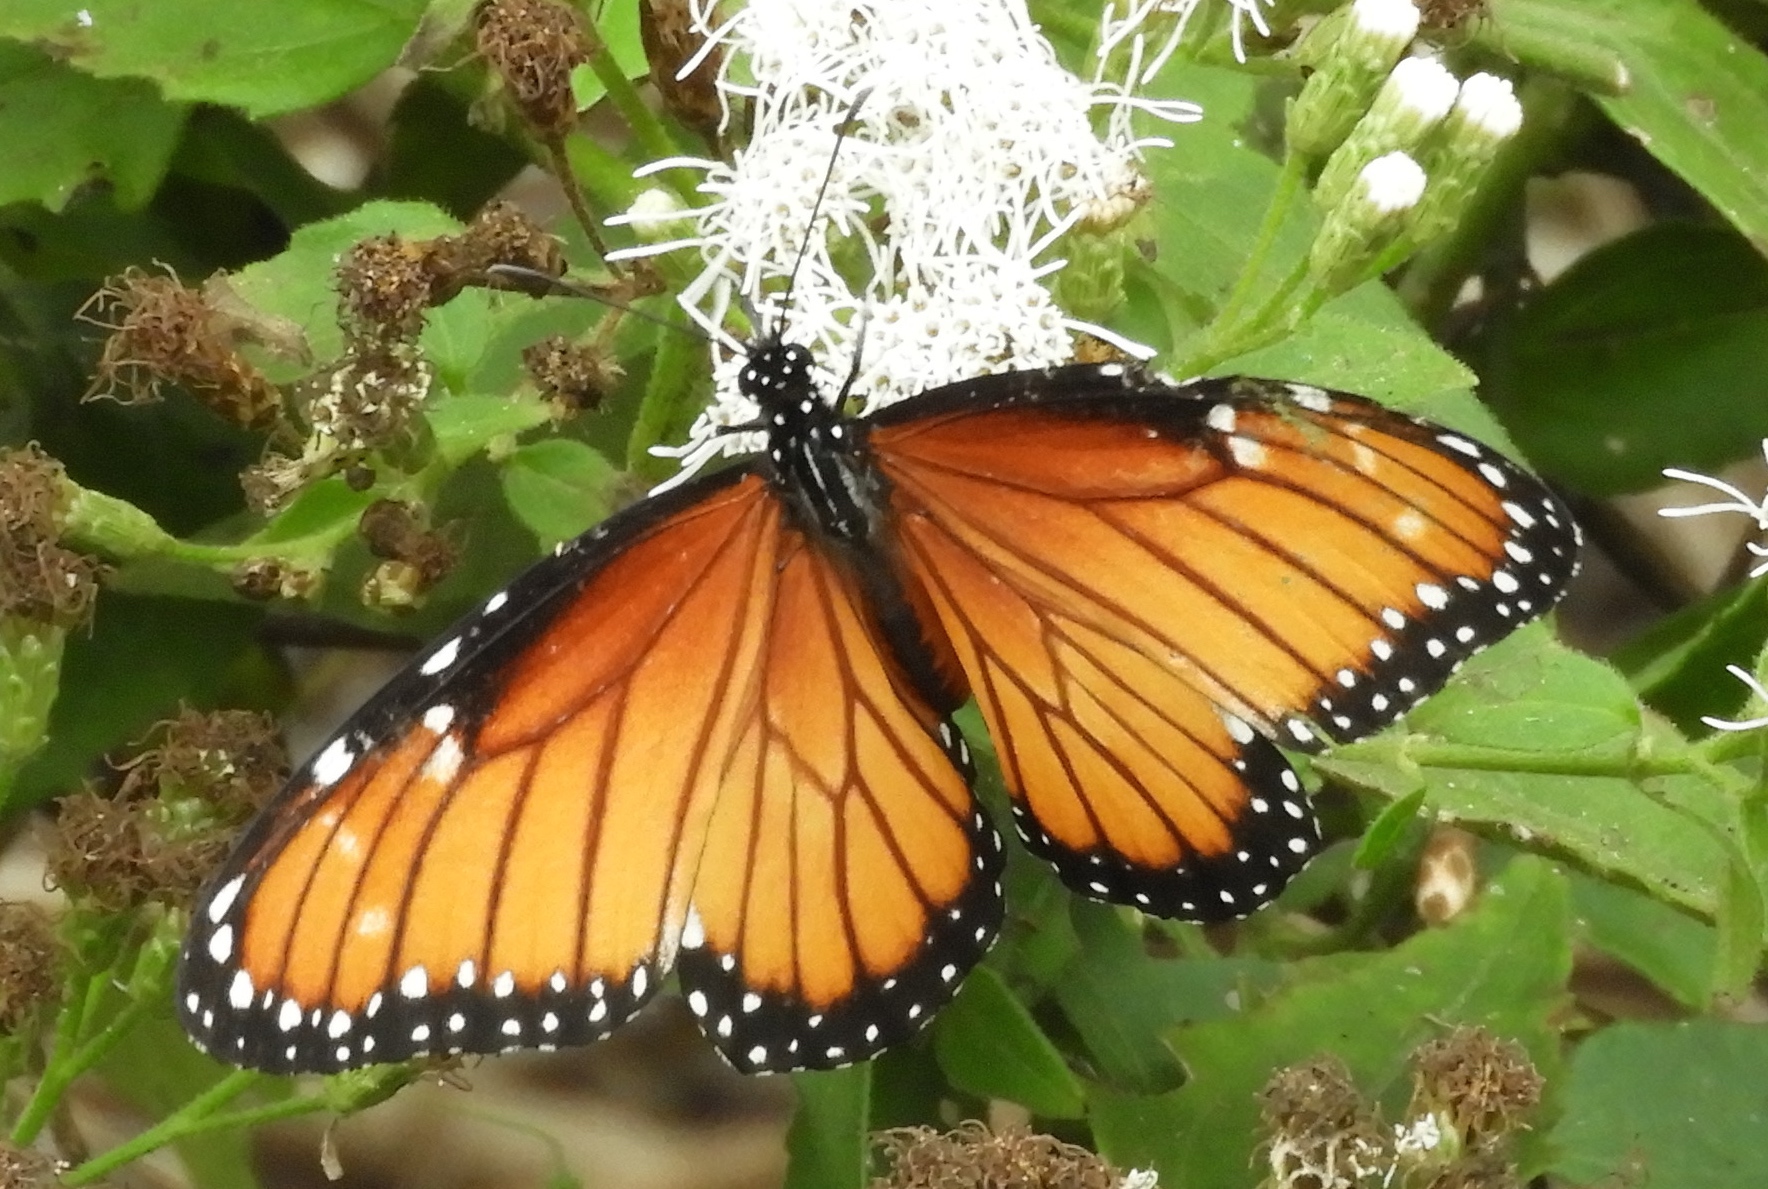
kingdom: Animalia
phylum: Arthropoda
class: Insecta
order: Lepidoptera
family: Nymphalidae
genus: Danaus
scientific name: Danaus eresimus
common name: Soldier
